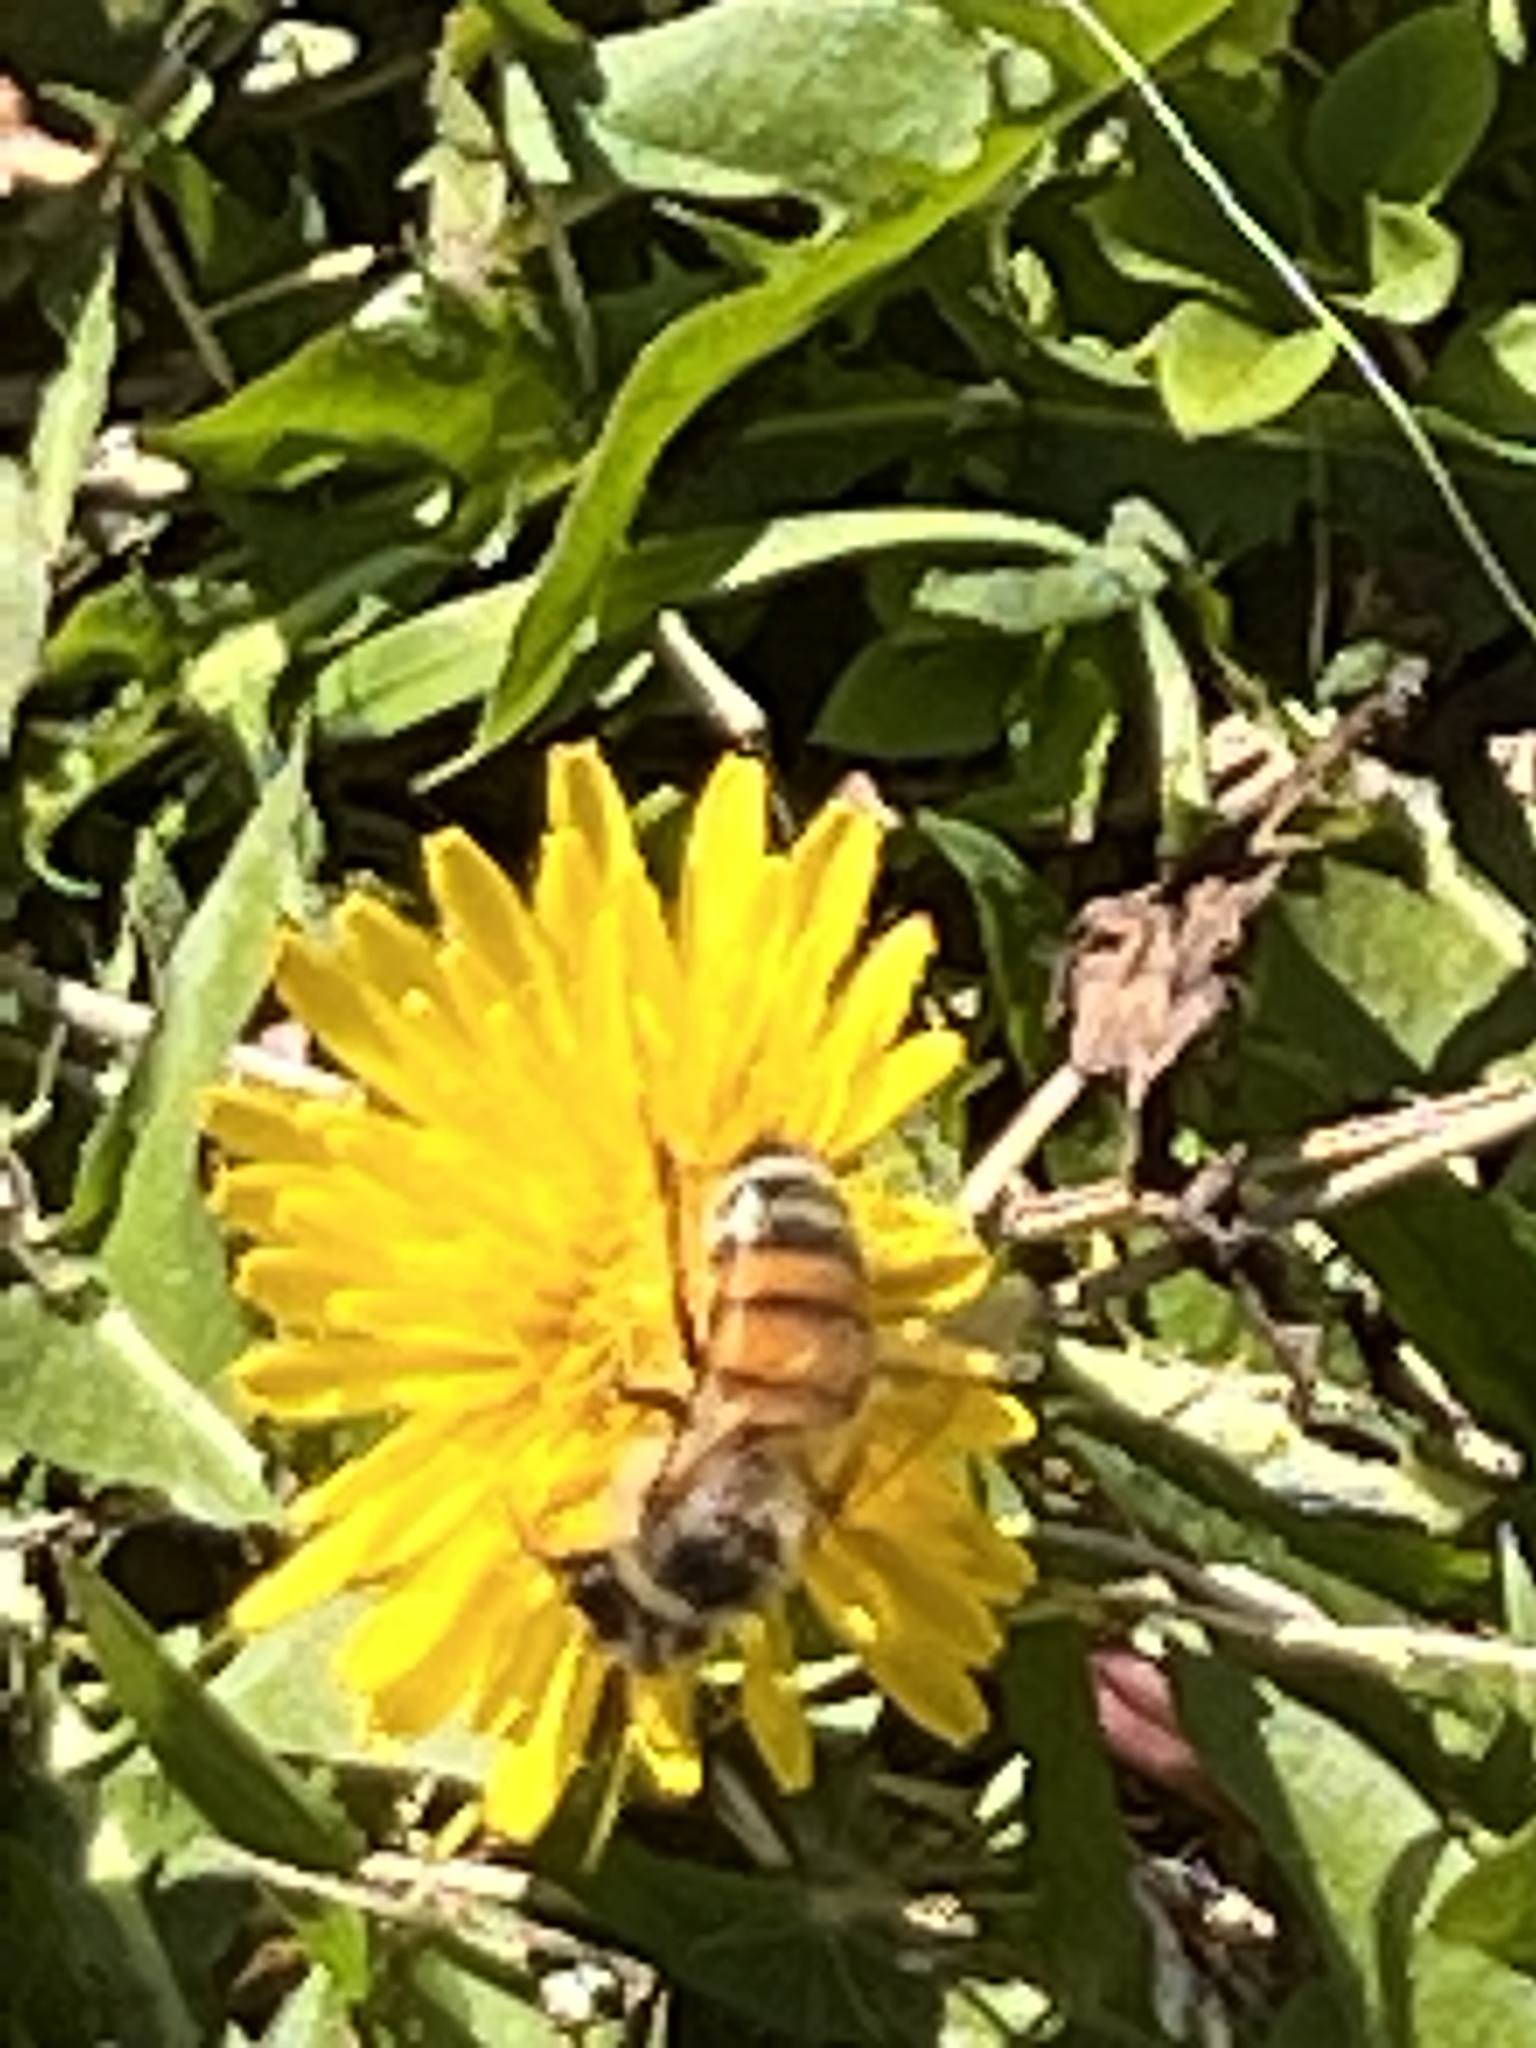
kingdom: Animalia
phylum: Arthropoda
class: Insecta
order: Hymenoptera
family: Apidae
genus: Apis
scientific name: Apis mellifera
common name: Honey bee
